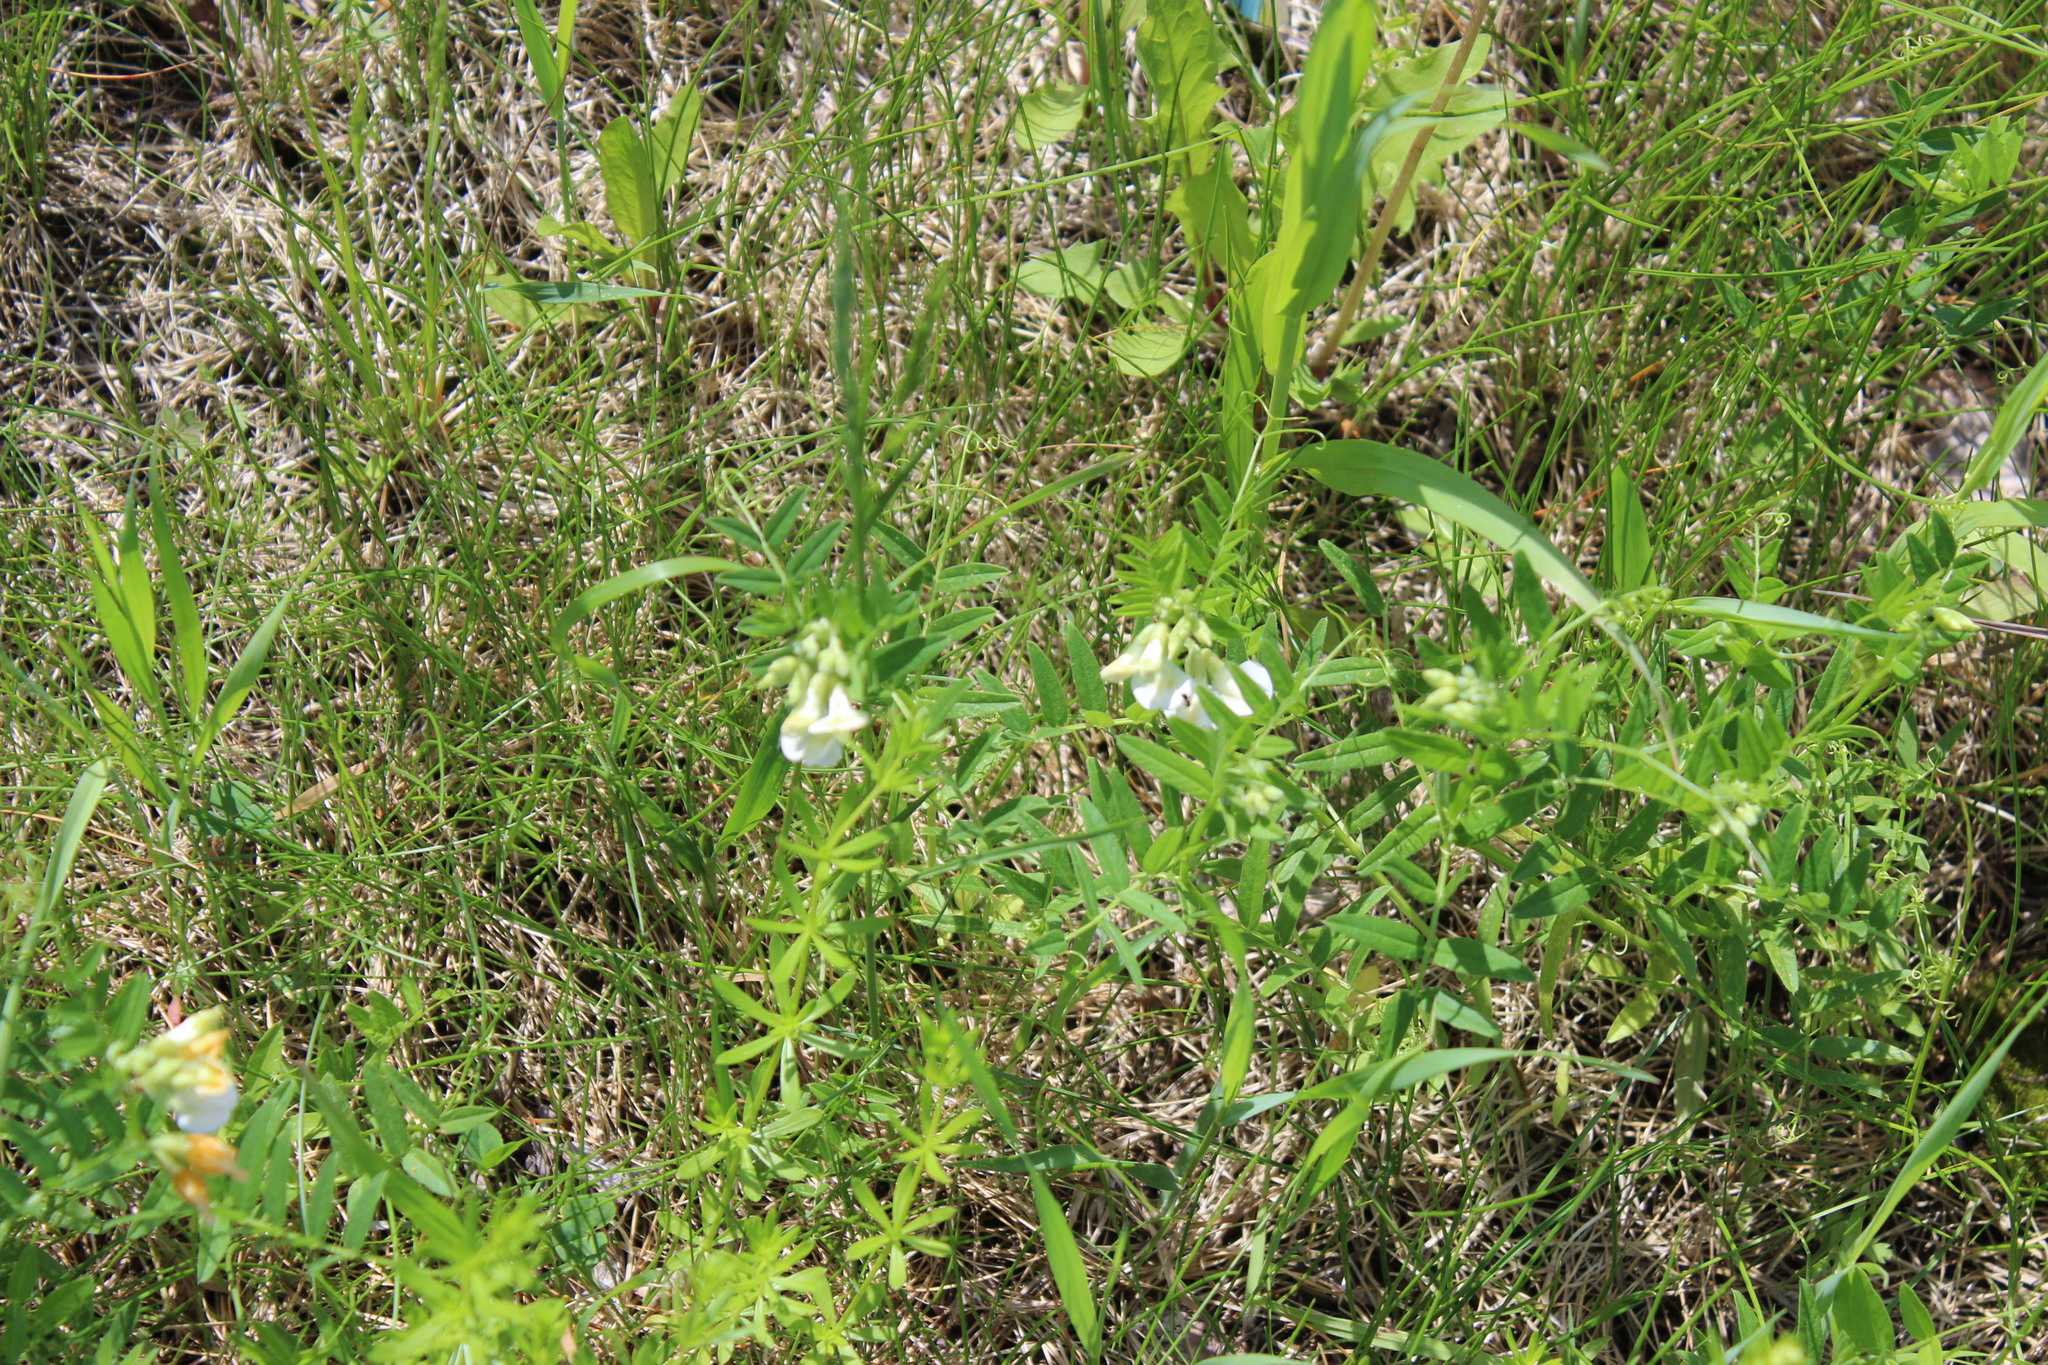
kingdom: Plantae
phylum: Tracheophyta
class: Magnoliopsida
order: Fabales
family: Fabaceae
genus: Vicia
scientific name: Vicia sepium
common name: Bush vetch
